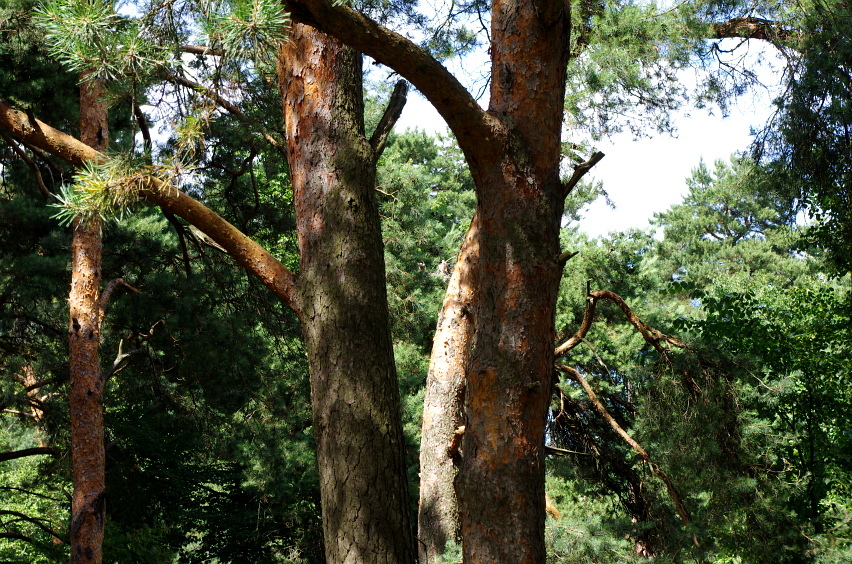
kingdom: Plantae
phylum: Tracheophyta
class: Pinopsida
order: Pinales
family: Pinaceae
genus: Pinus
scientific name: Pinus sylvestris
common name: Scots pine
